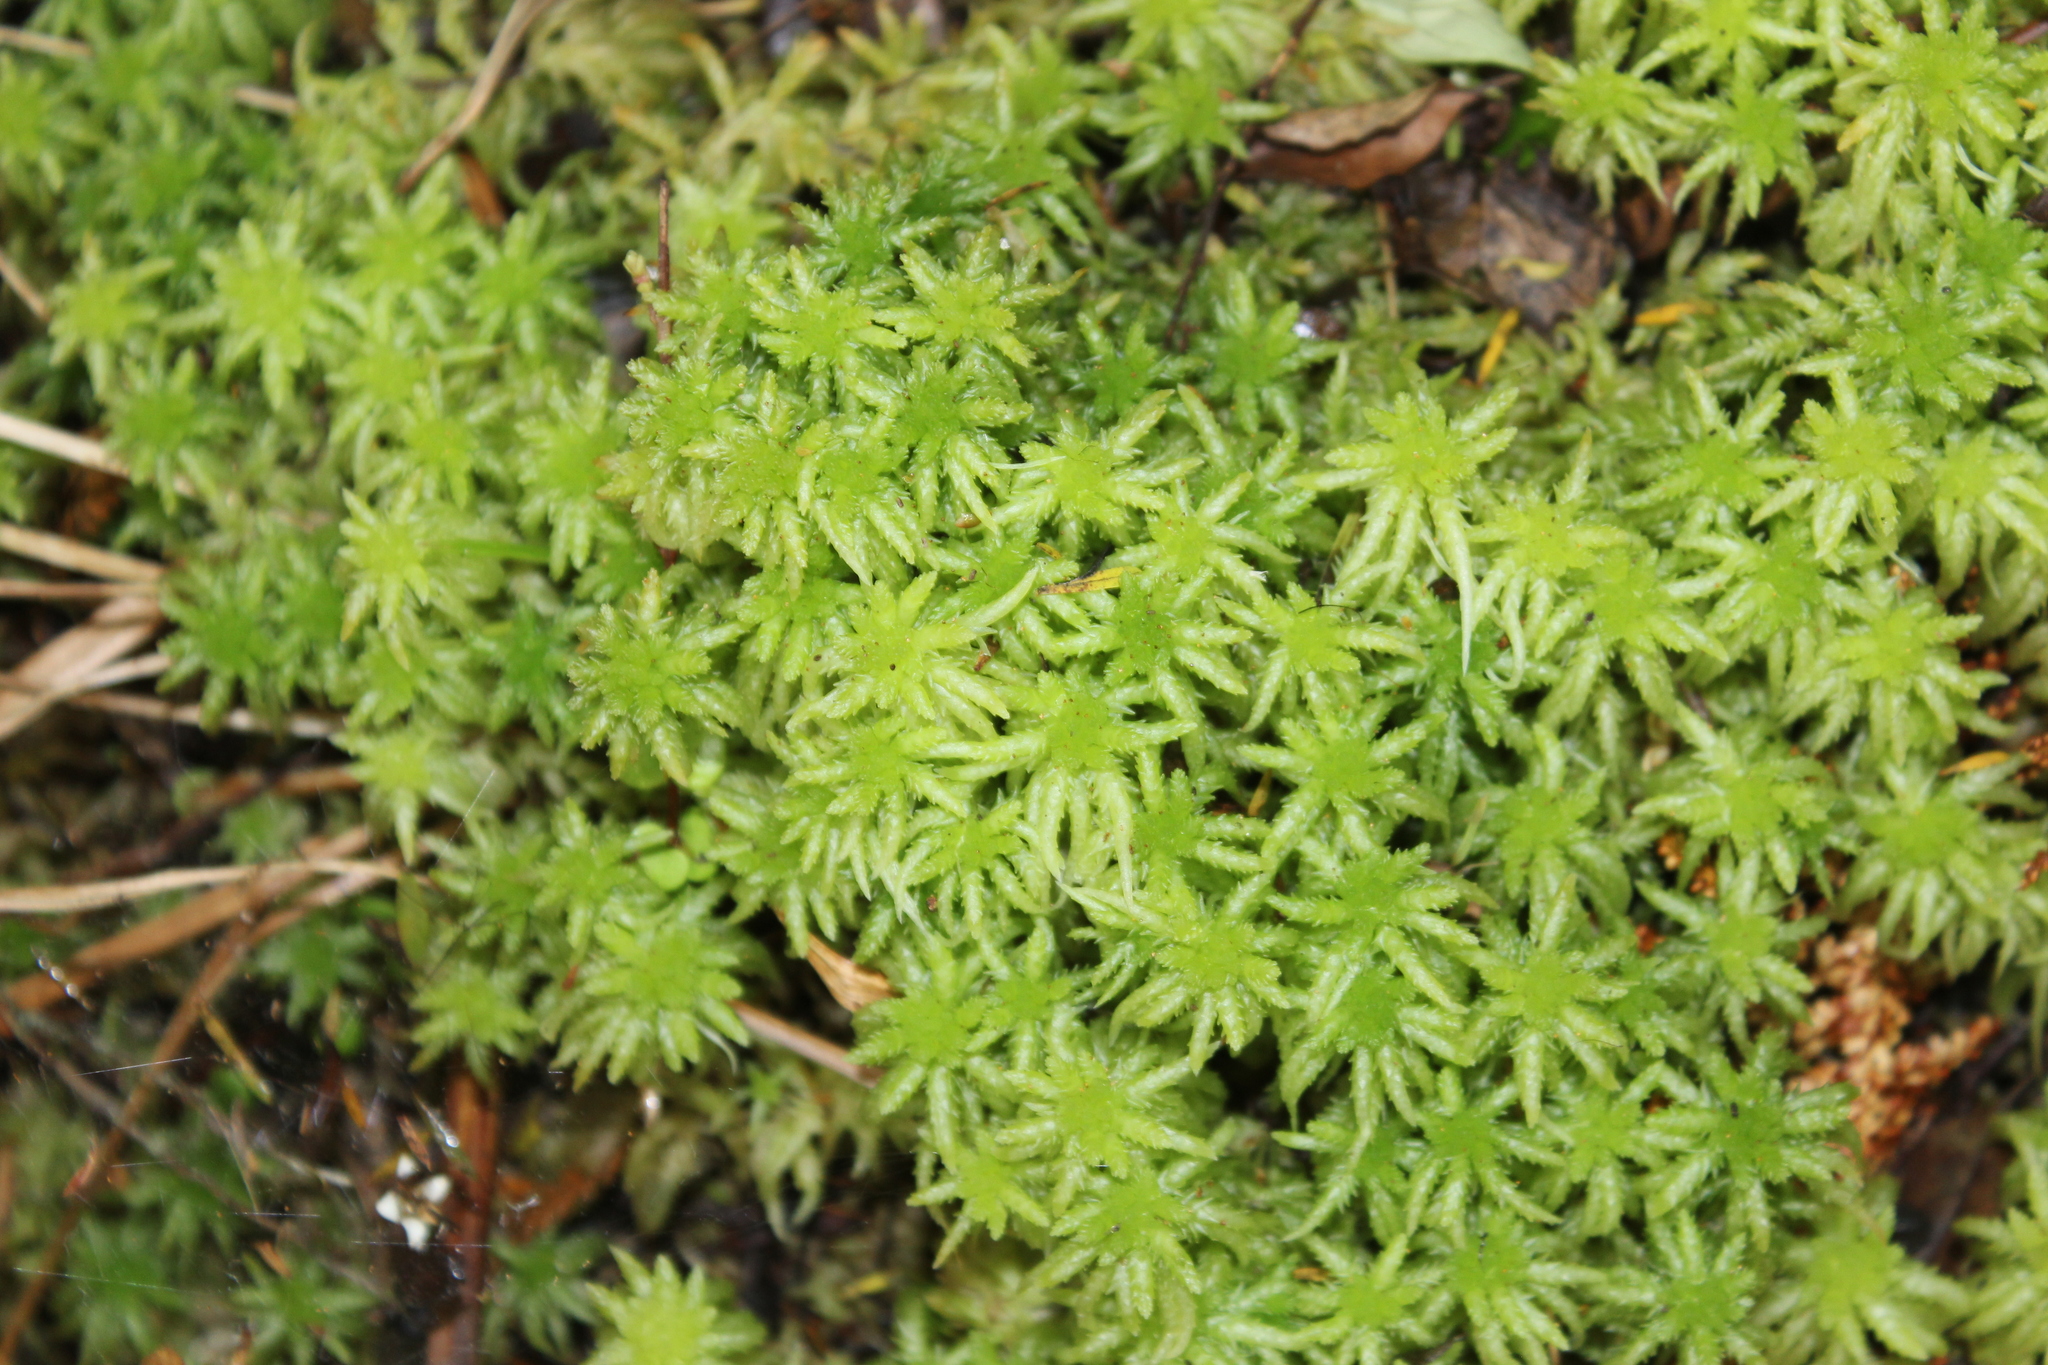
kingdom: Plantae
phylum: Bryophyta
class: Sphagnopsida
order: Sphagnales
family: Sphagnaceae
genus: Sphagnum
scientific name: Sphagnum cristatum
